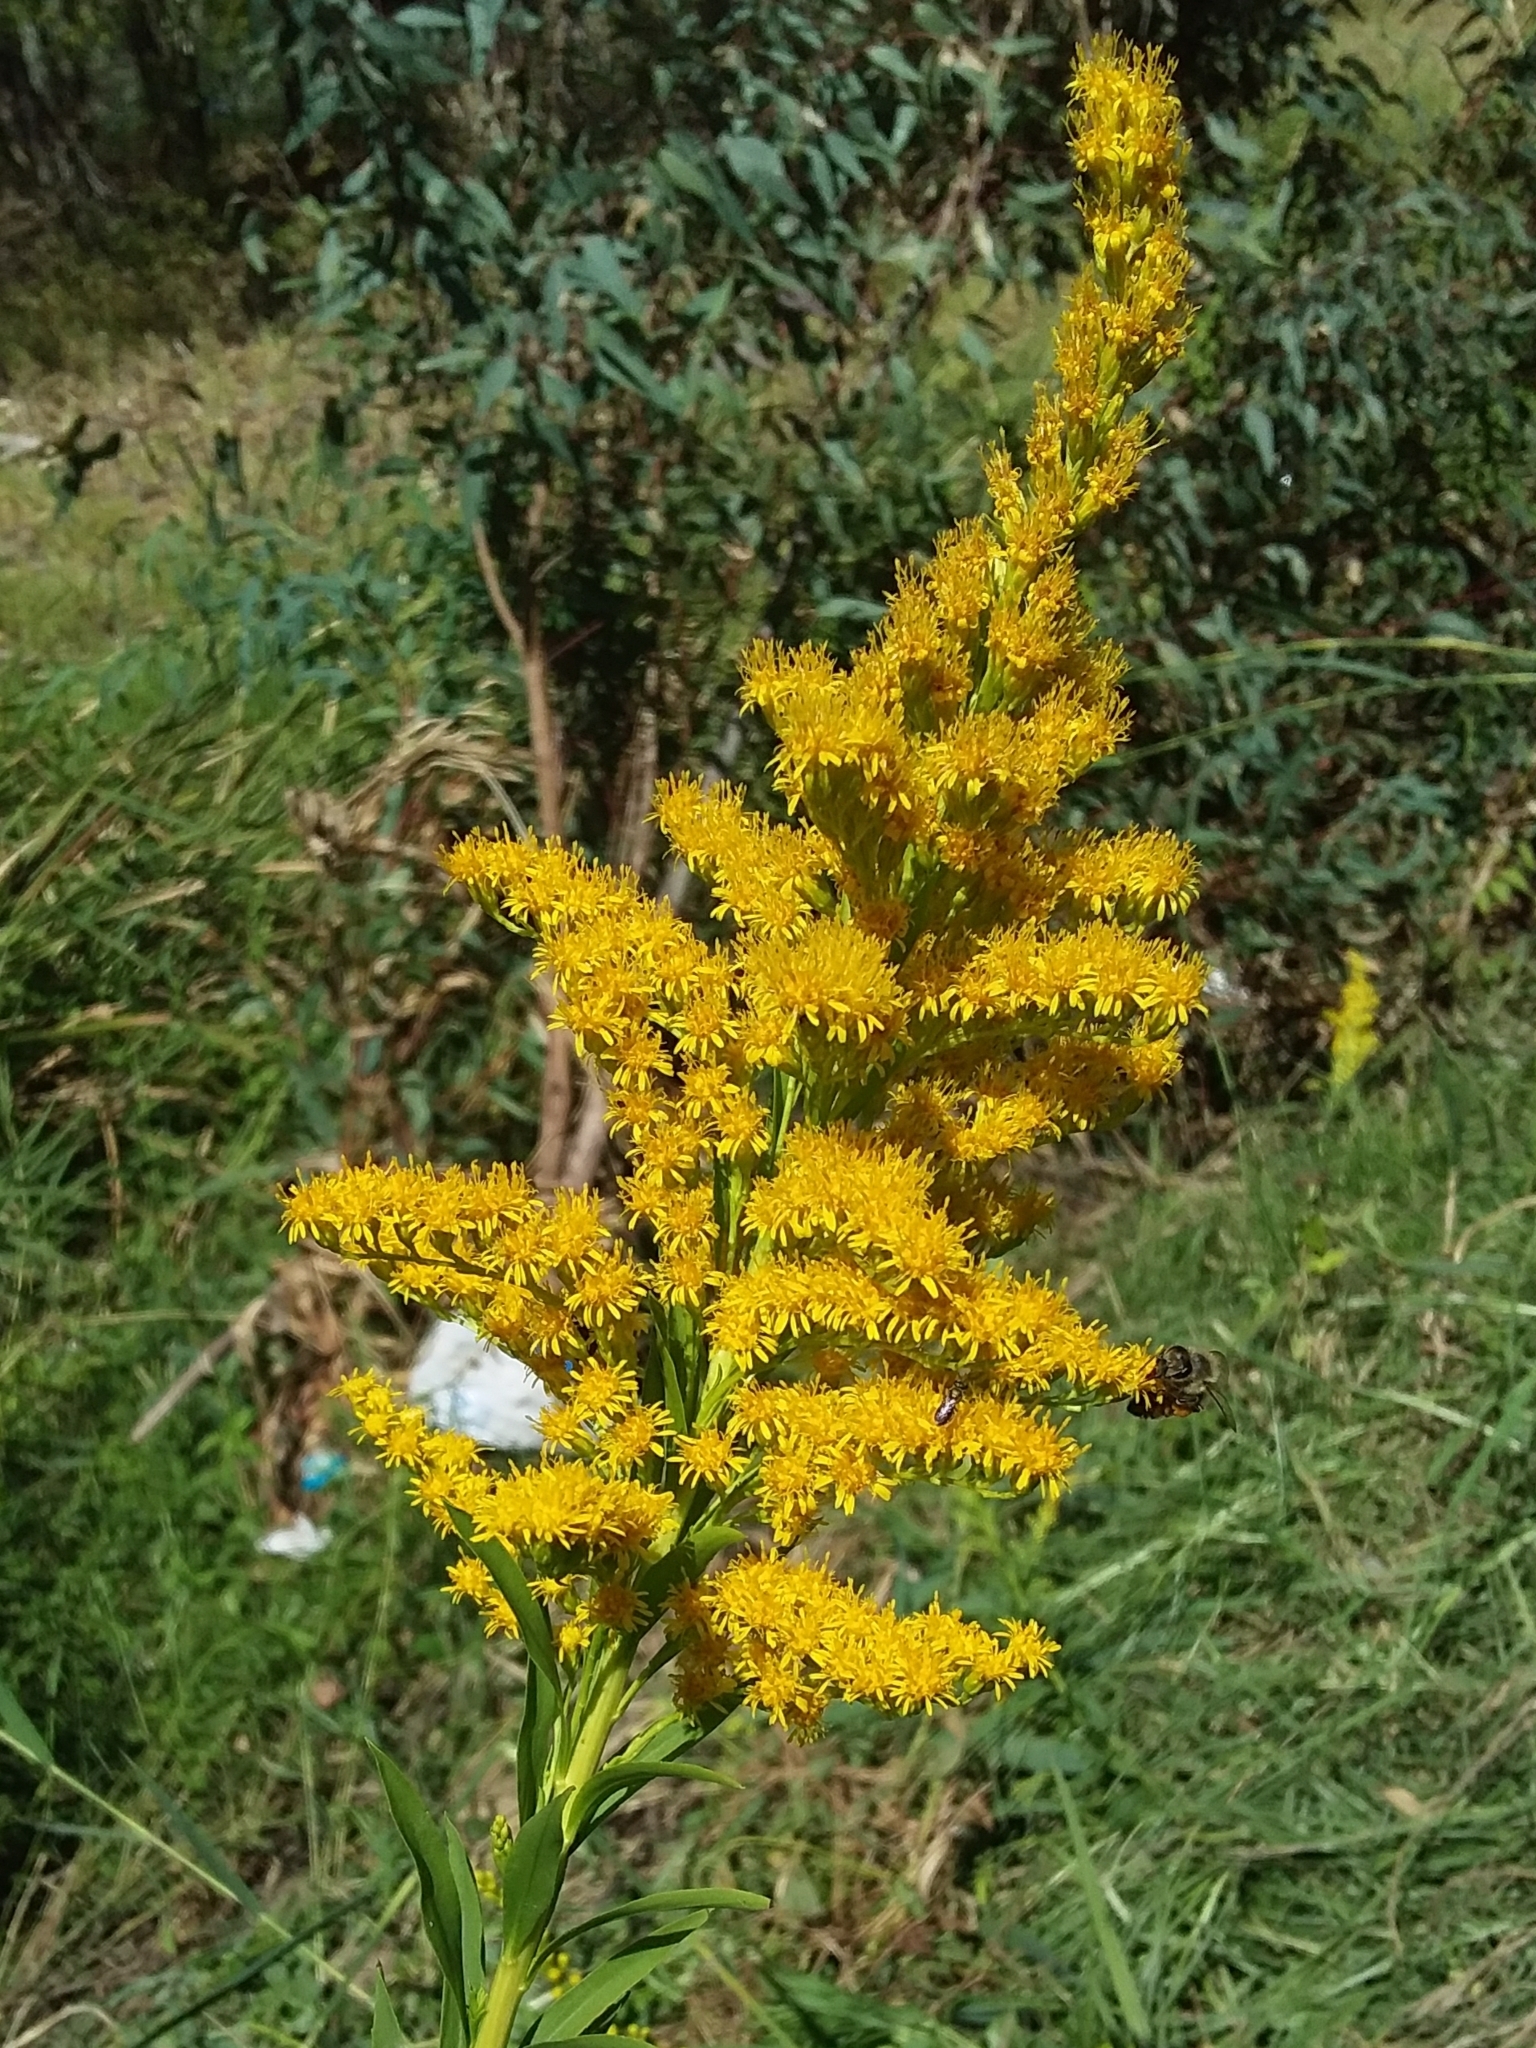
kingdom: Plantae
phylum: Tracheophyta
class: Magnoliopsida
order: Asterales
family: Asteraceae
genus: Solidago
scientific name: Solidago canadensis
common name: Canada goldenrod
